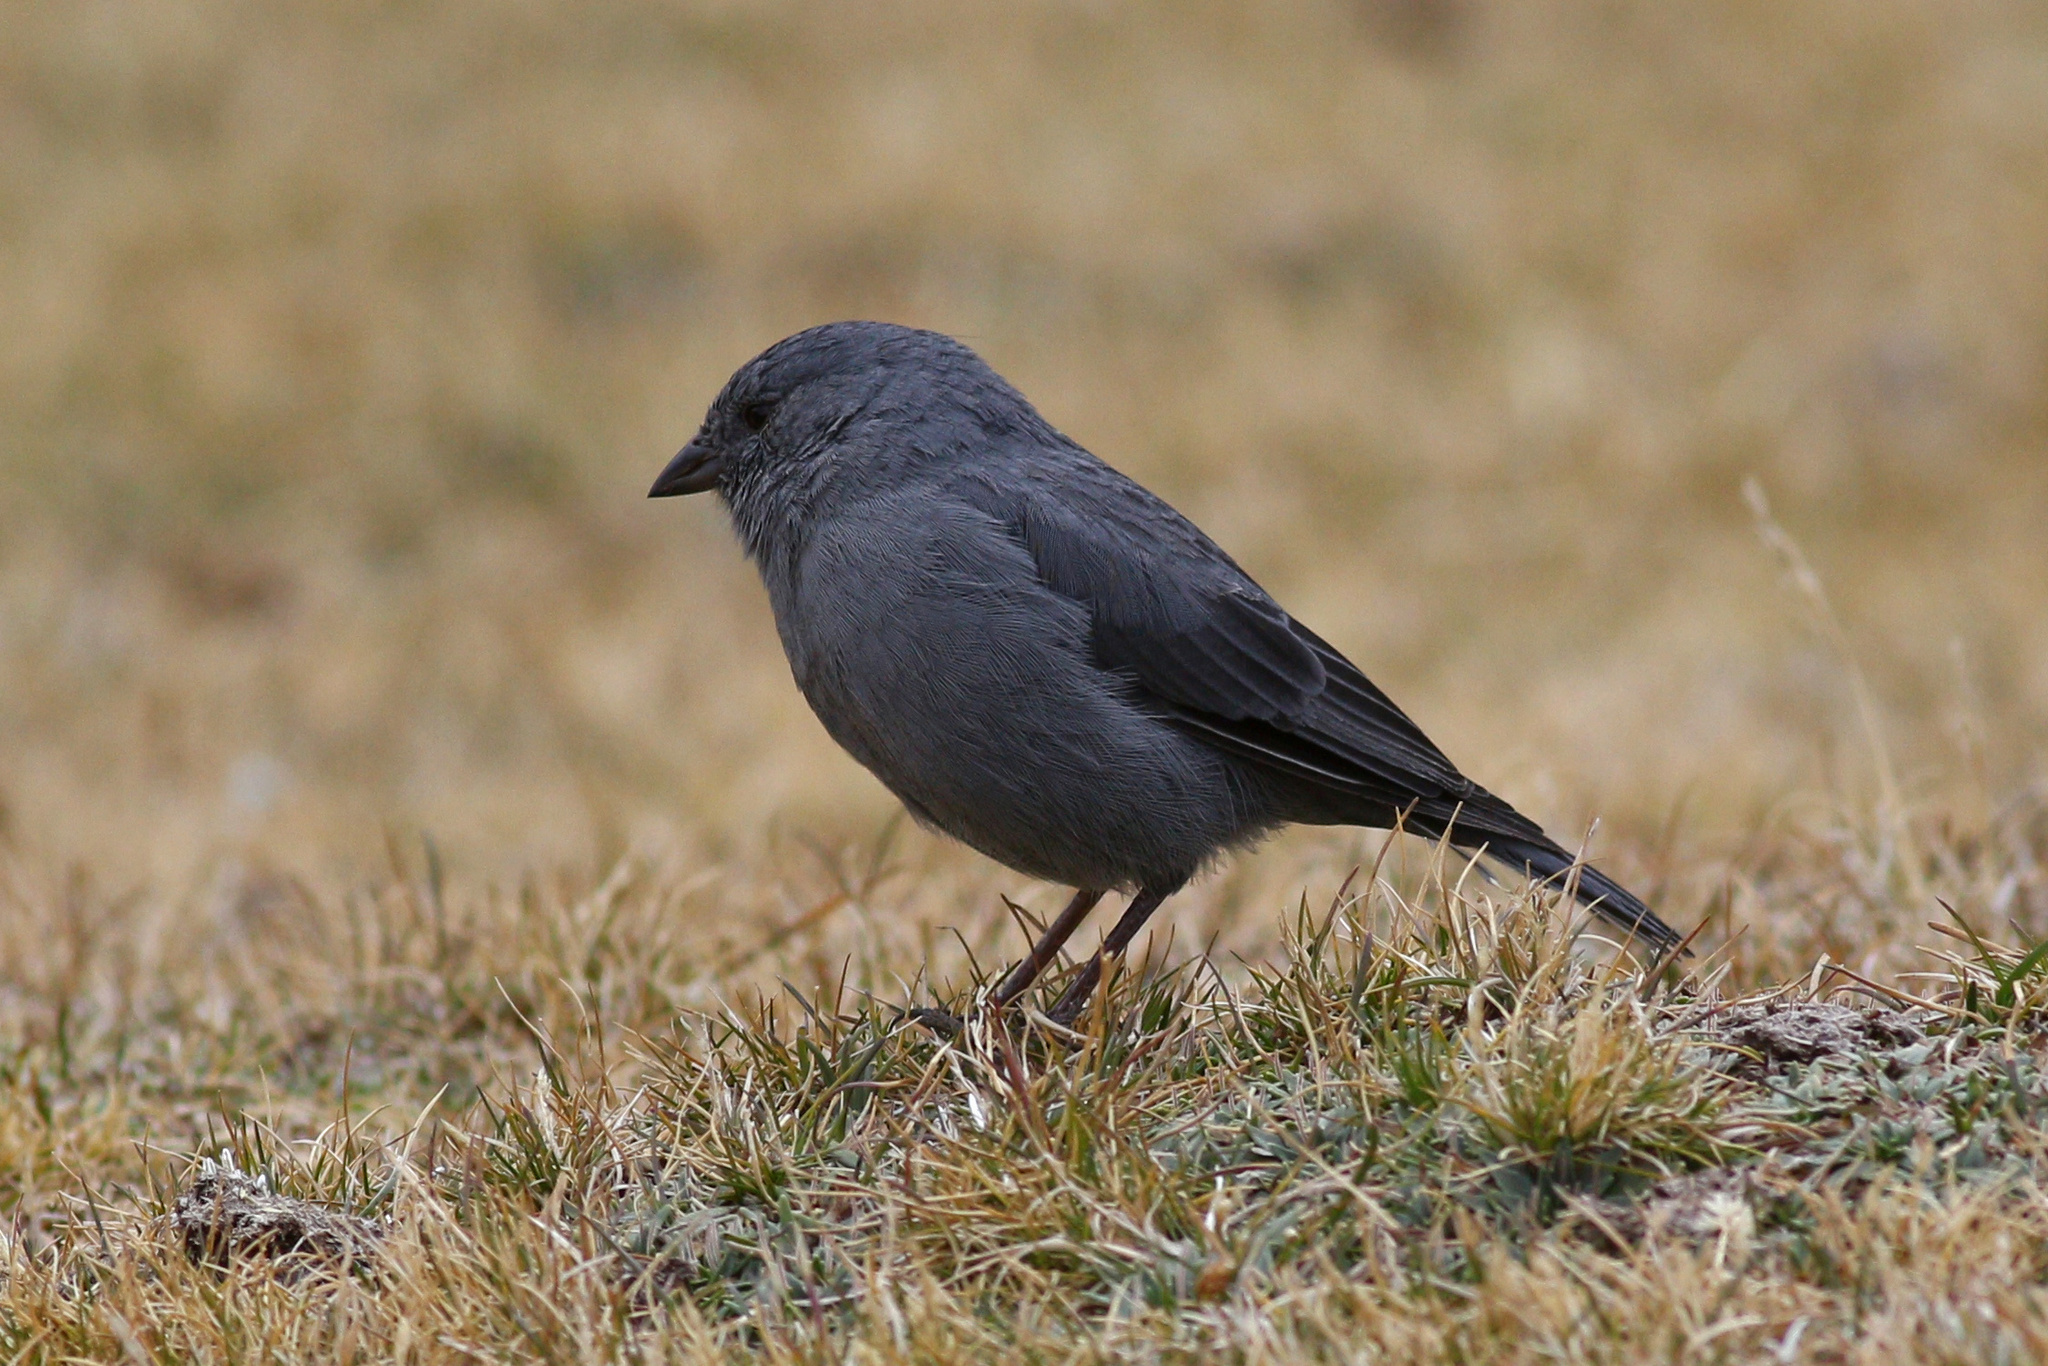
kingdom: Animalia
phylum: Chordata
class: Aves
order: Passeriformes
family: Thraupidae
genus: Geospizopsis
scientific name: Geospizopsis unicolor
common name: Plumbeous sierra-finch
